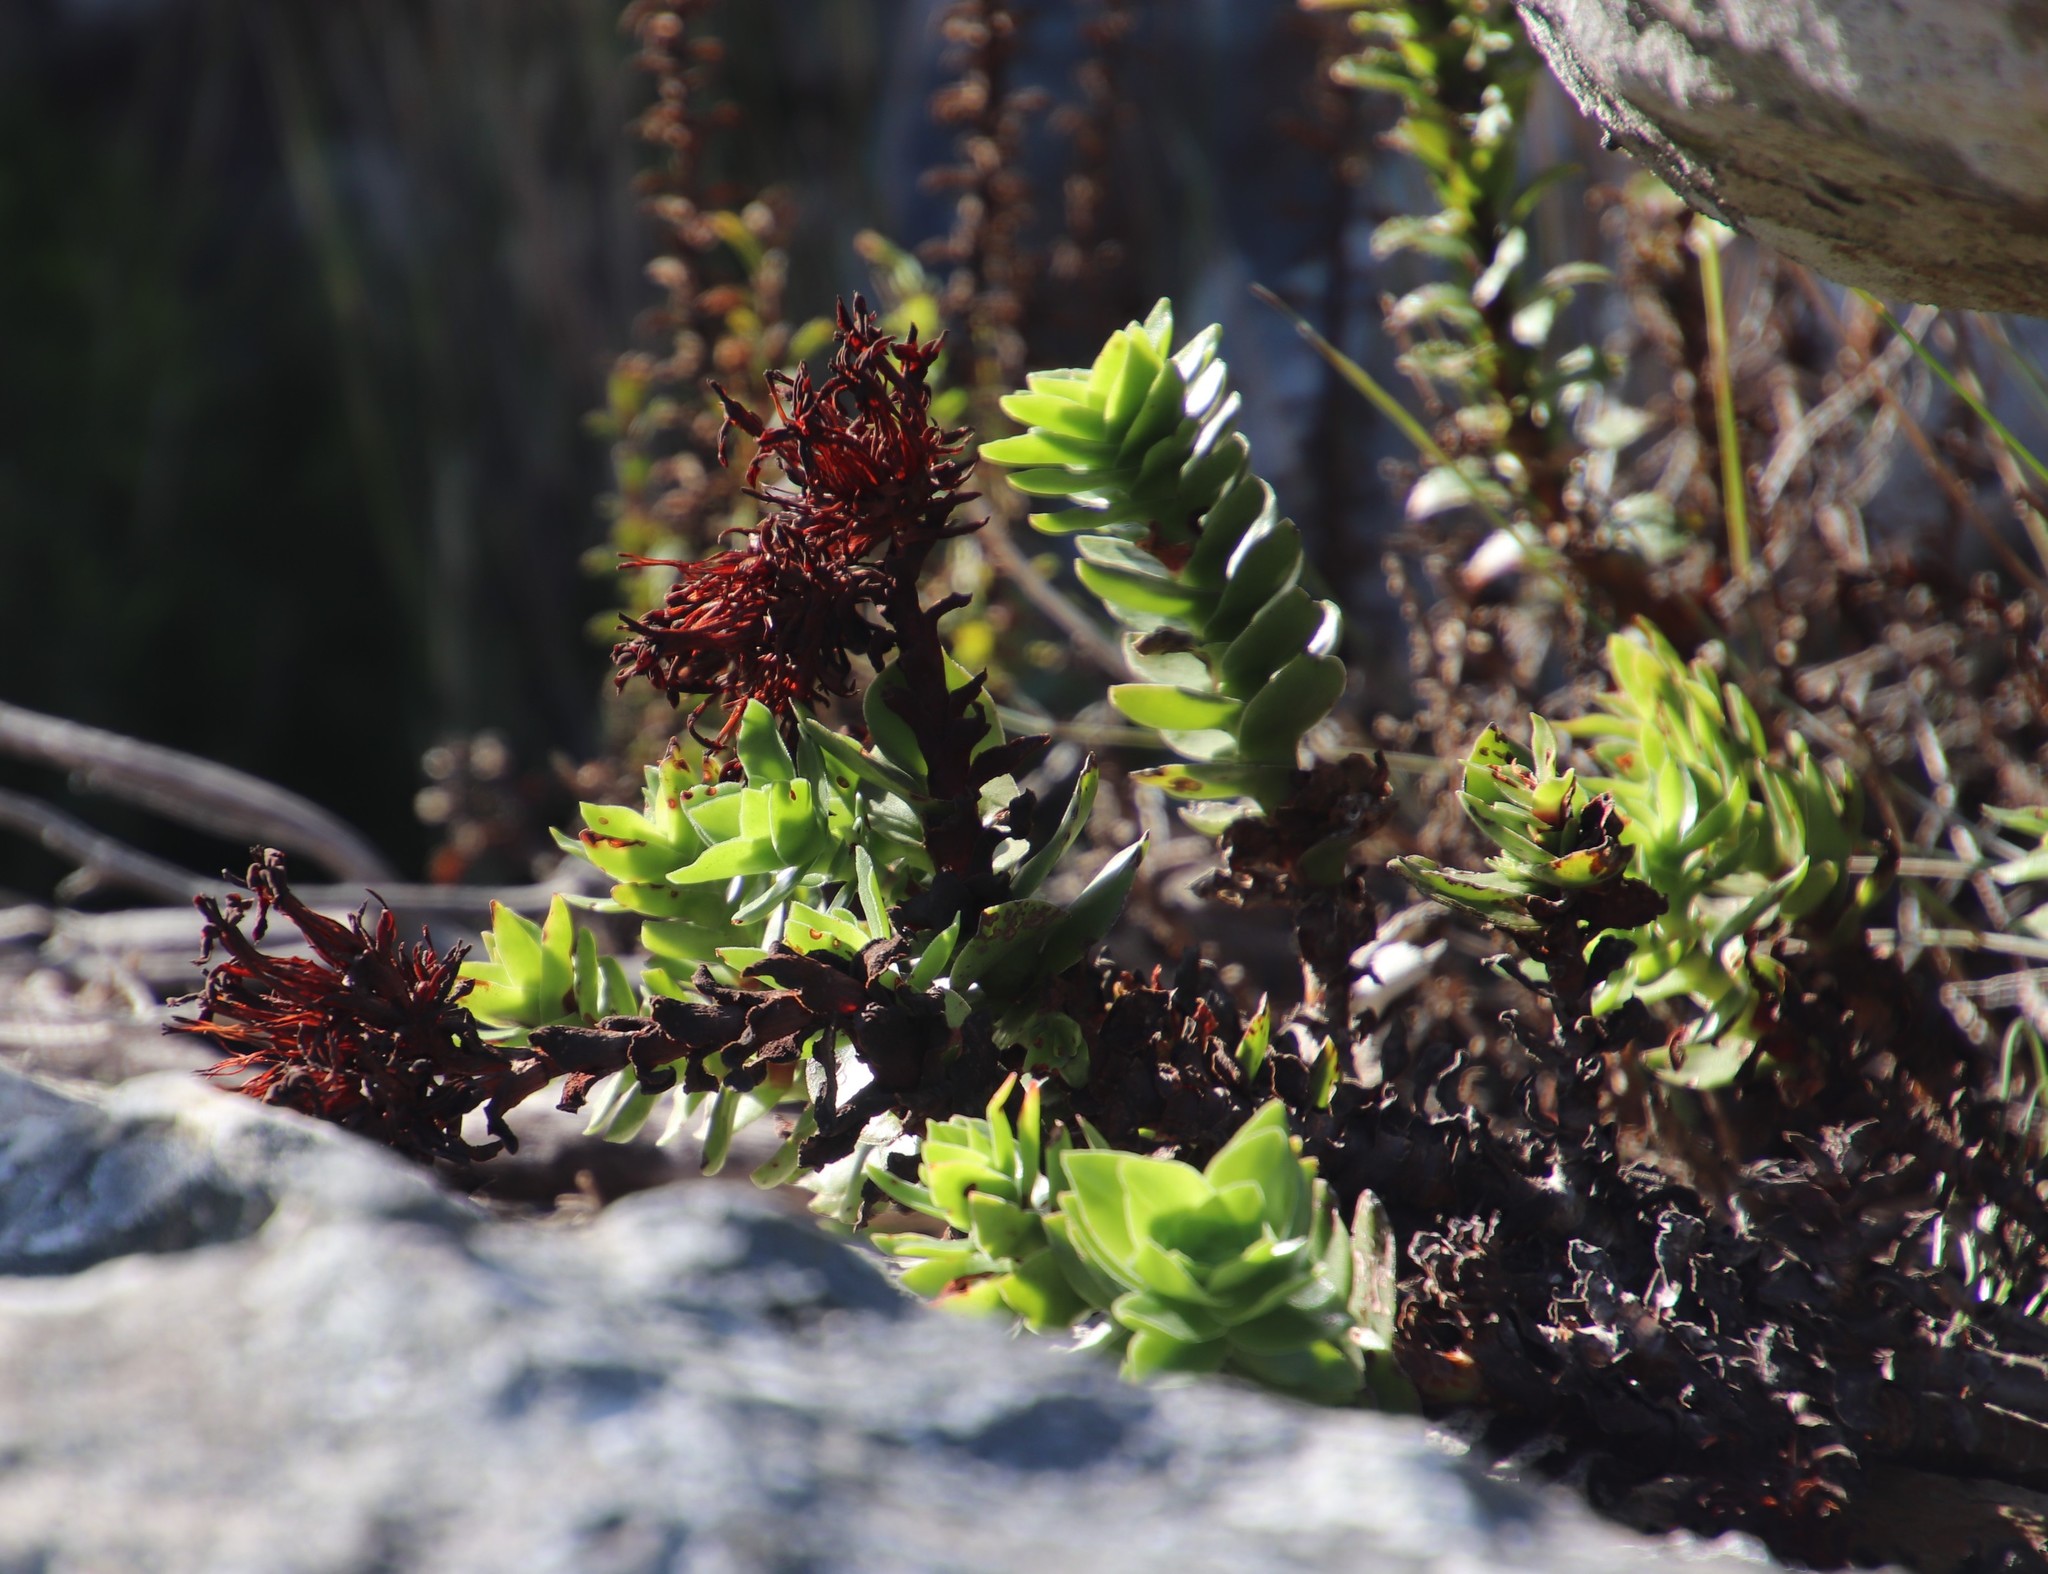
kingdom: Plantae
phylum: Tracheophyta
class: Magnoliopsida
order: Saxifragales
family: Crassulaceae
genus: Crassula
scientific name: Crassula coccinea
